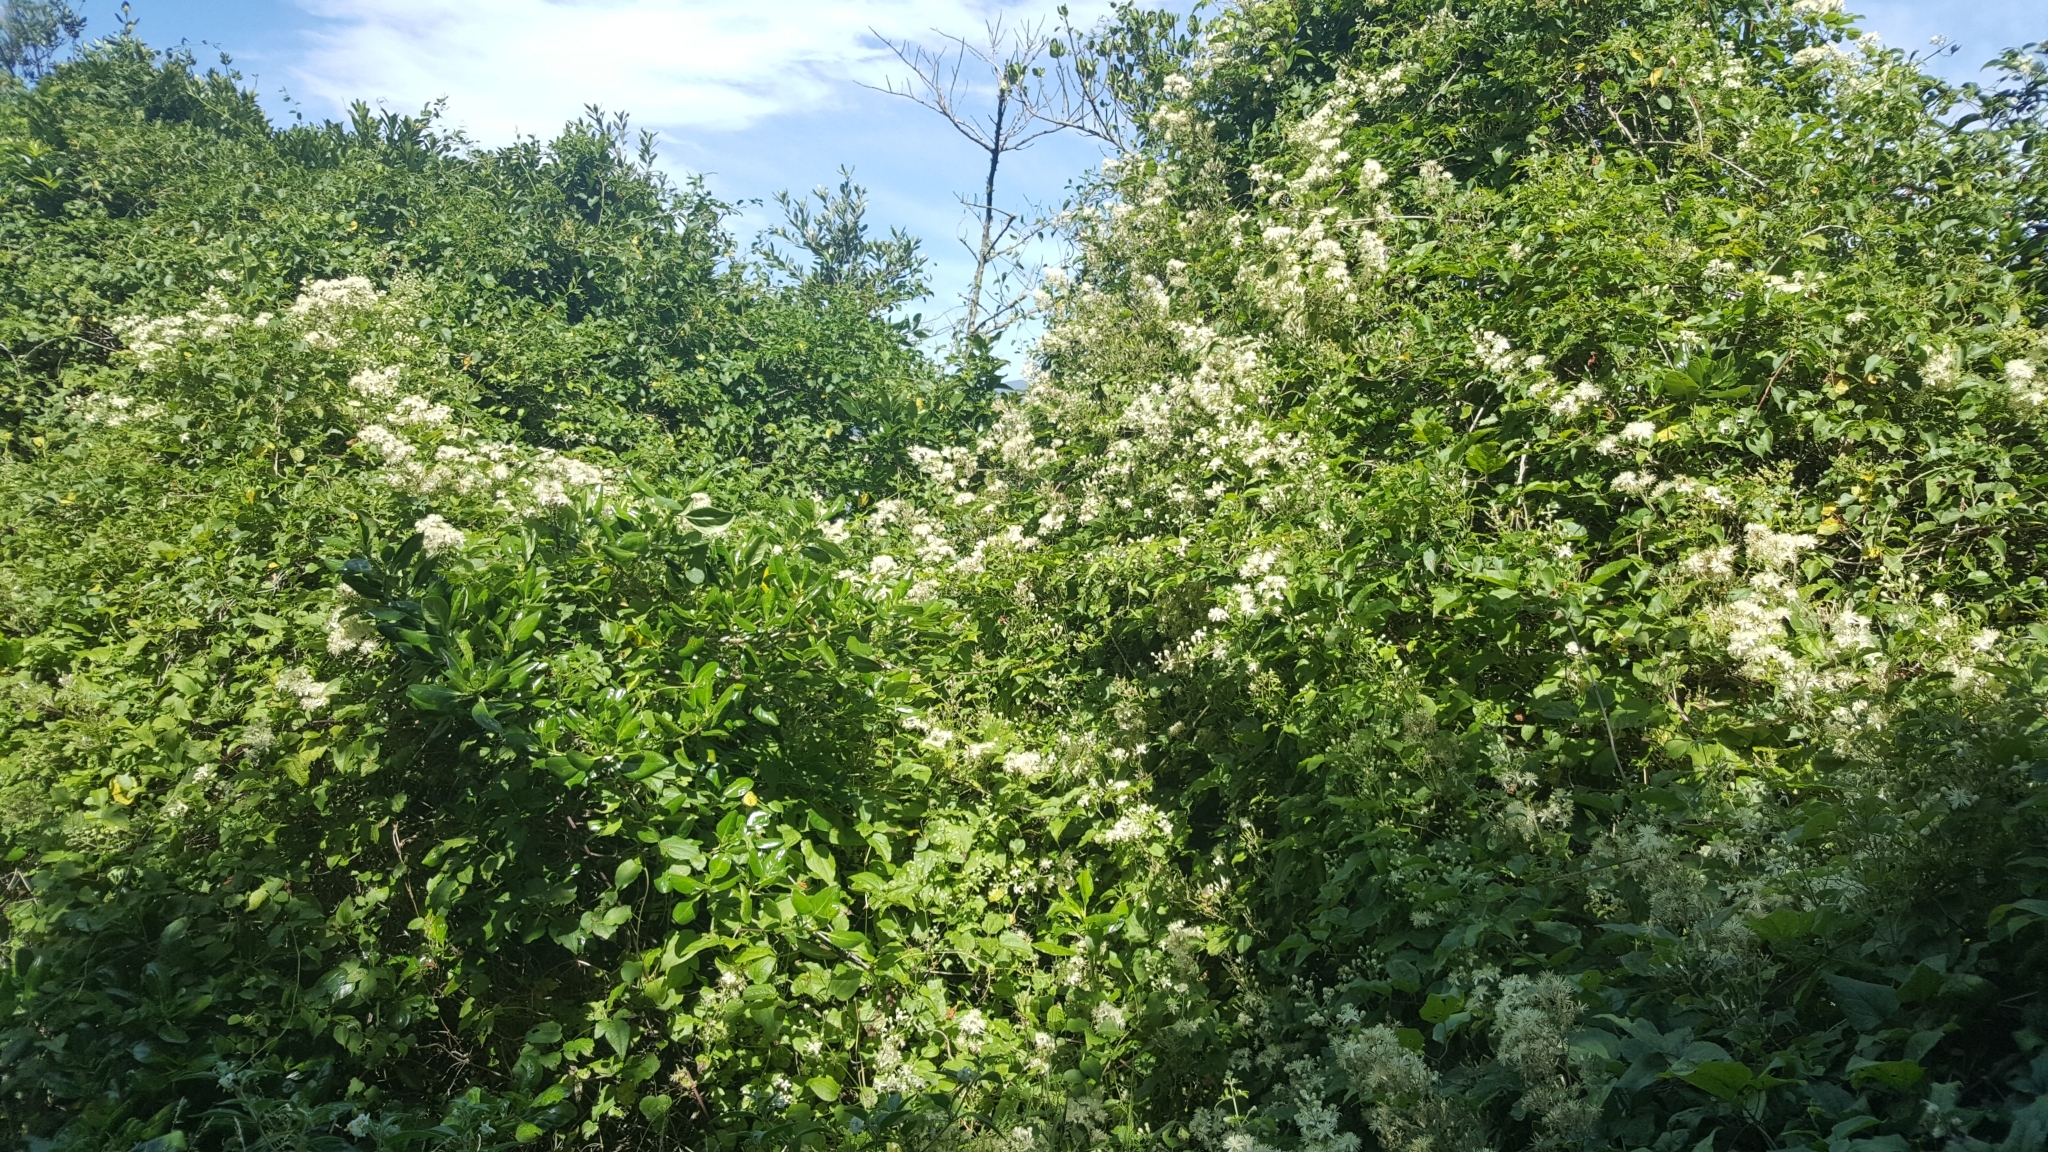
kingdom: Plantae
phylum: Tracheophyta
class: Magnoliopsida
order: Ranunculales
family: Ranunculaceae
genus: Clematis
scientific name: Clematis vitalba
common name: Evergreen clematis
